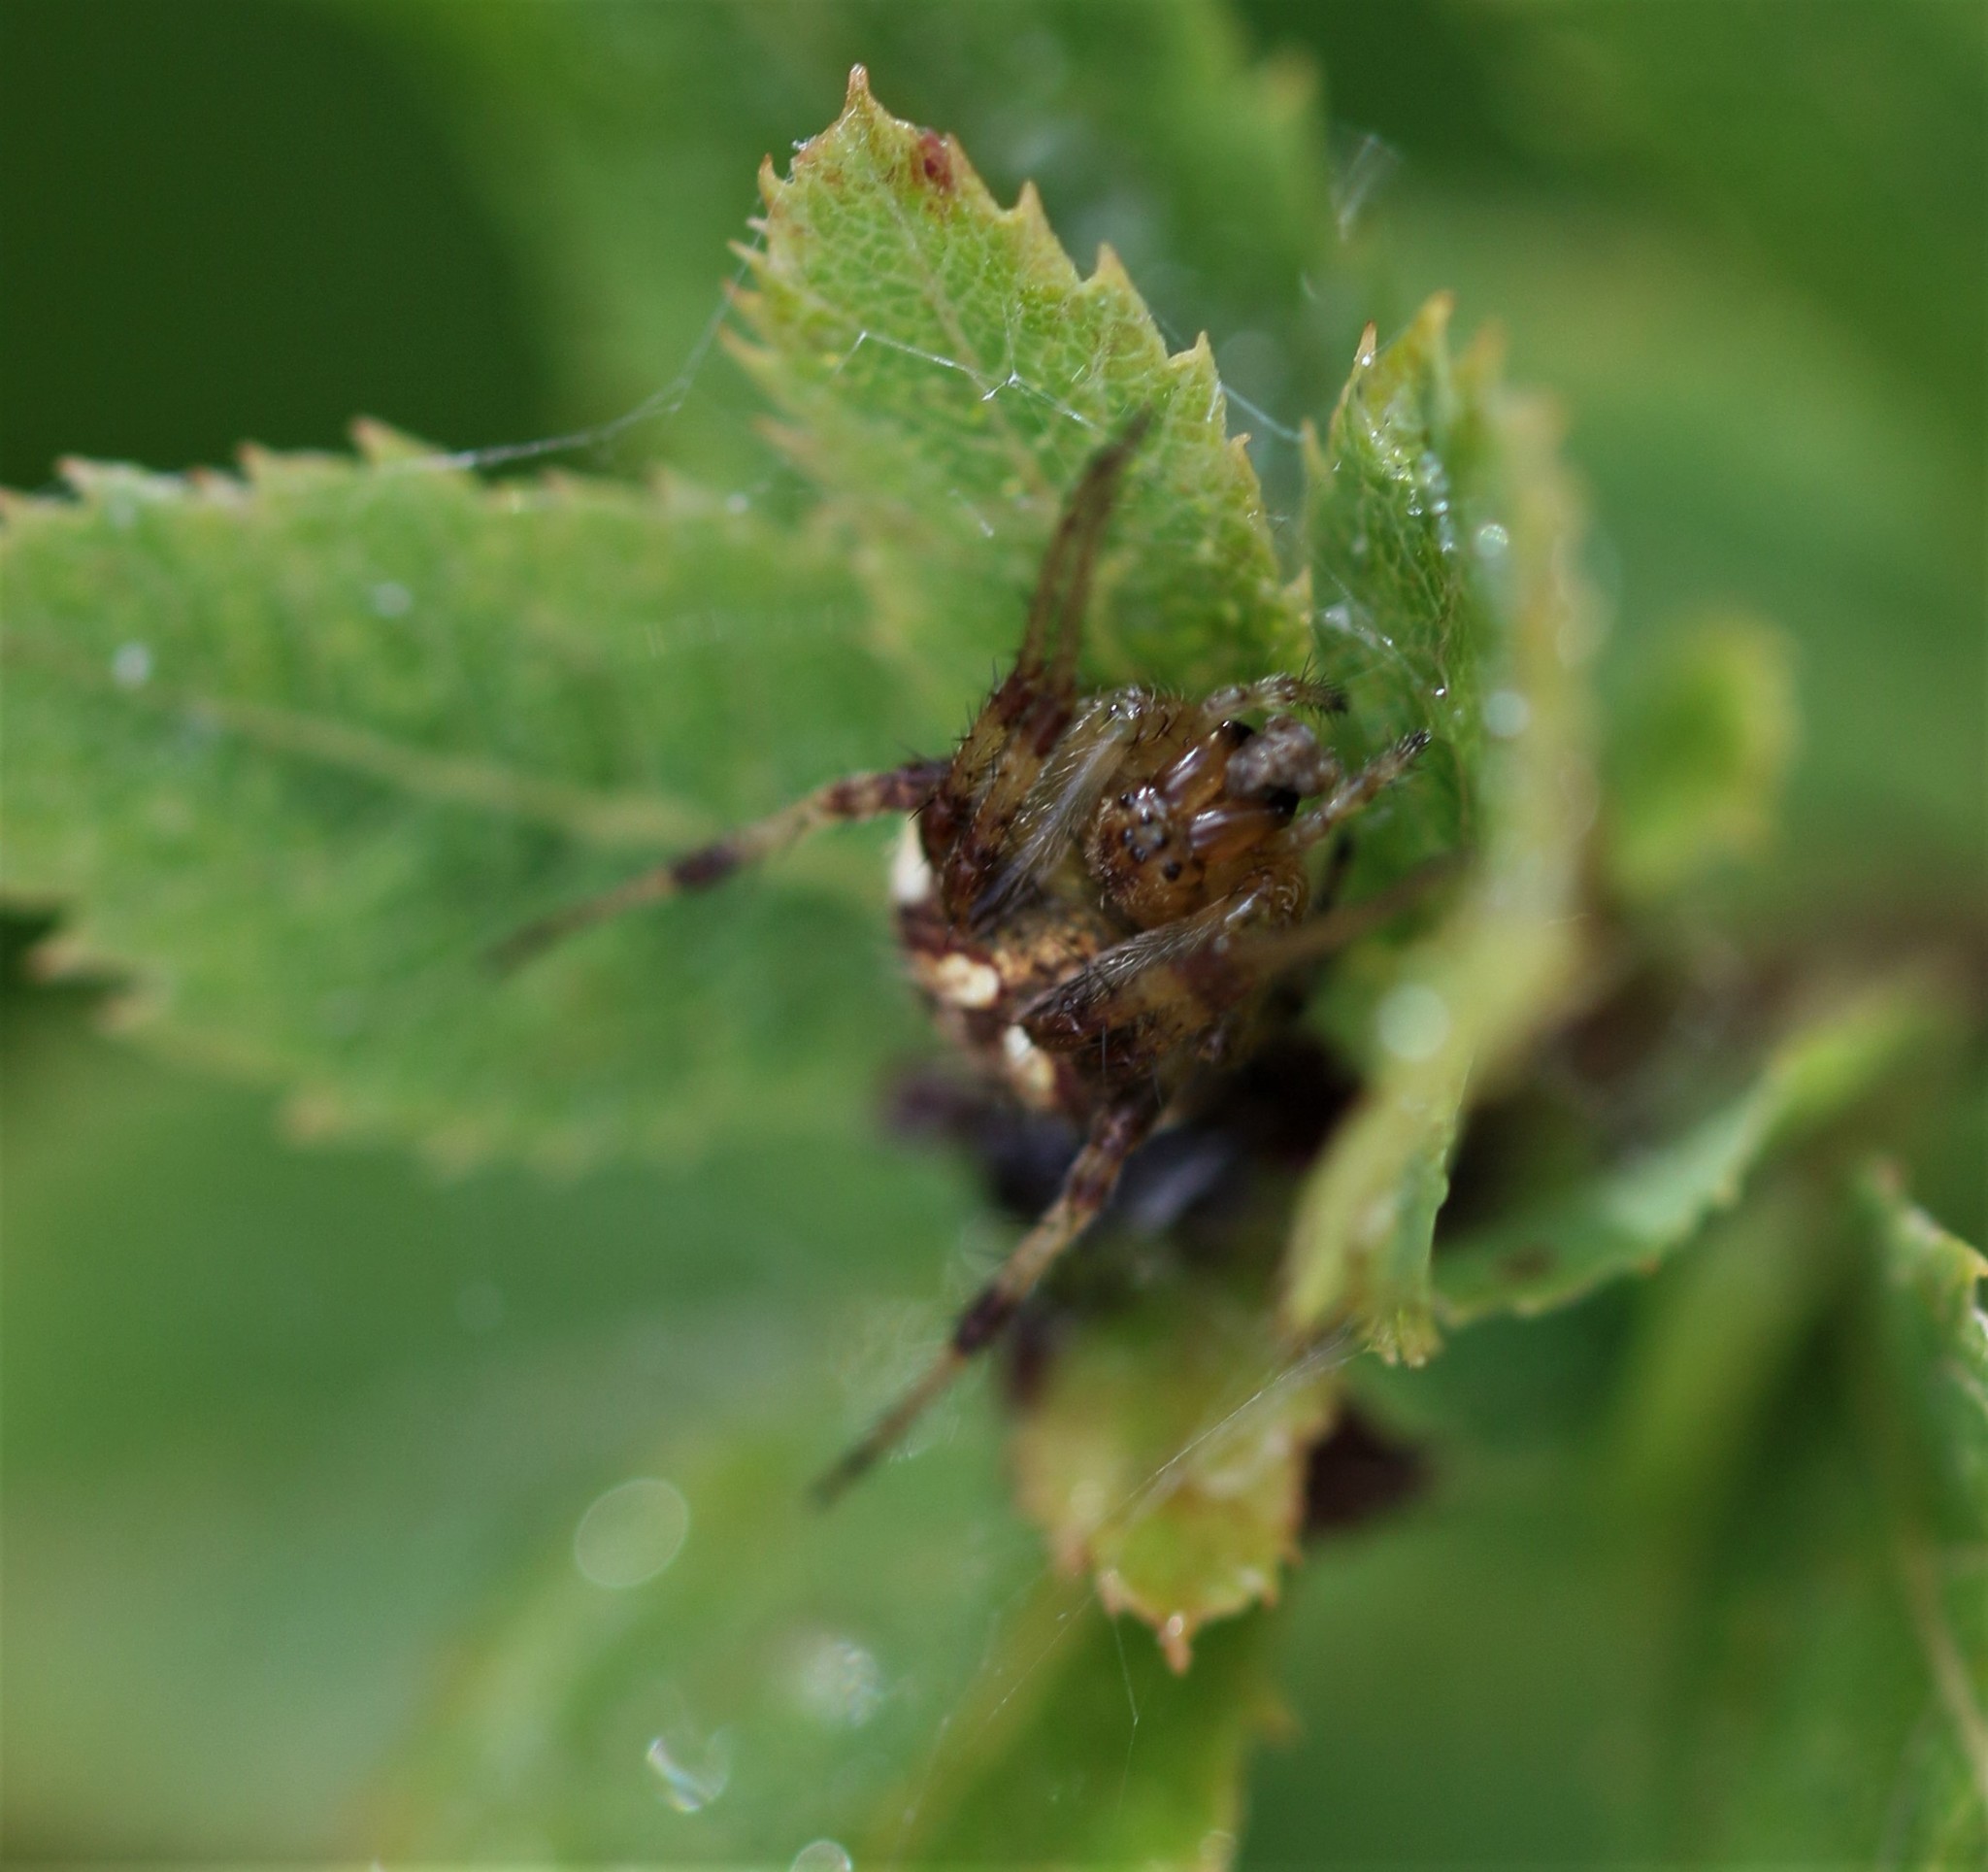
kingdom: Animalia
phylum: Arthropoda
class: Arachnida
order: Araneae
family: Araneidae
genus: Neoscona
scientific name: Neoscona arabesca
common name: Orb weavers
